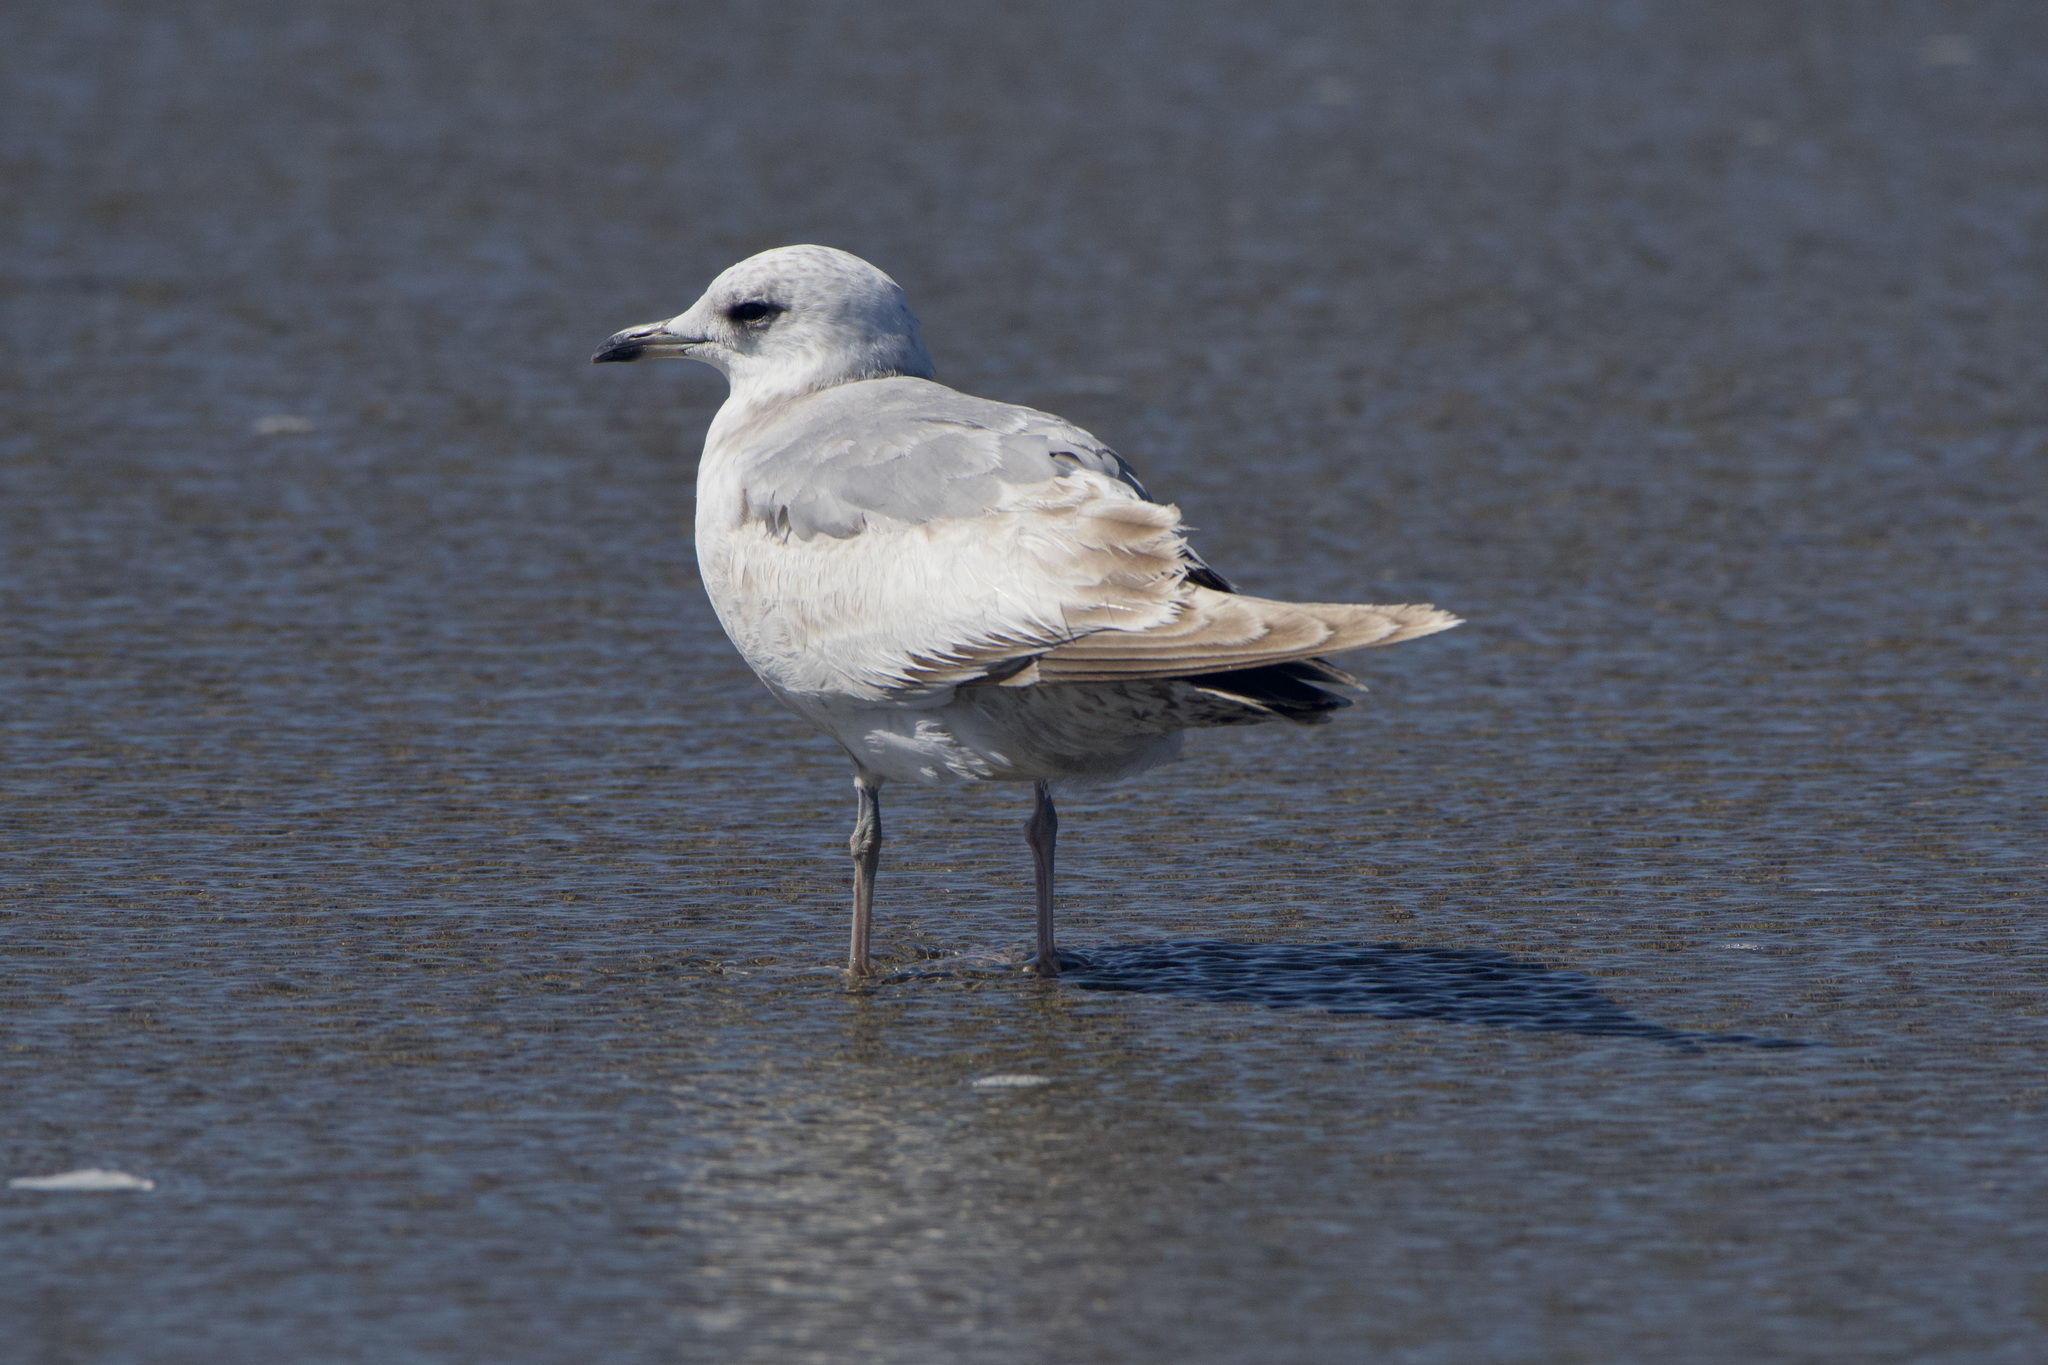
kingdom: Animalia
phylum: Chordata
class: Aves
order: Charadriiformes
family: Laridae
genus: Larus
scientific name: Larus brachyrhynchus
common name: Short-billed gull
